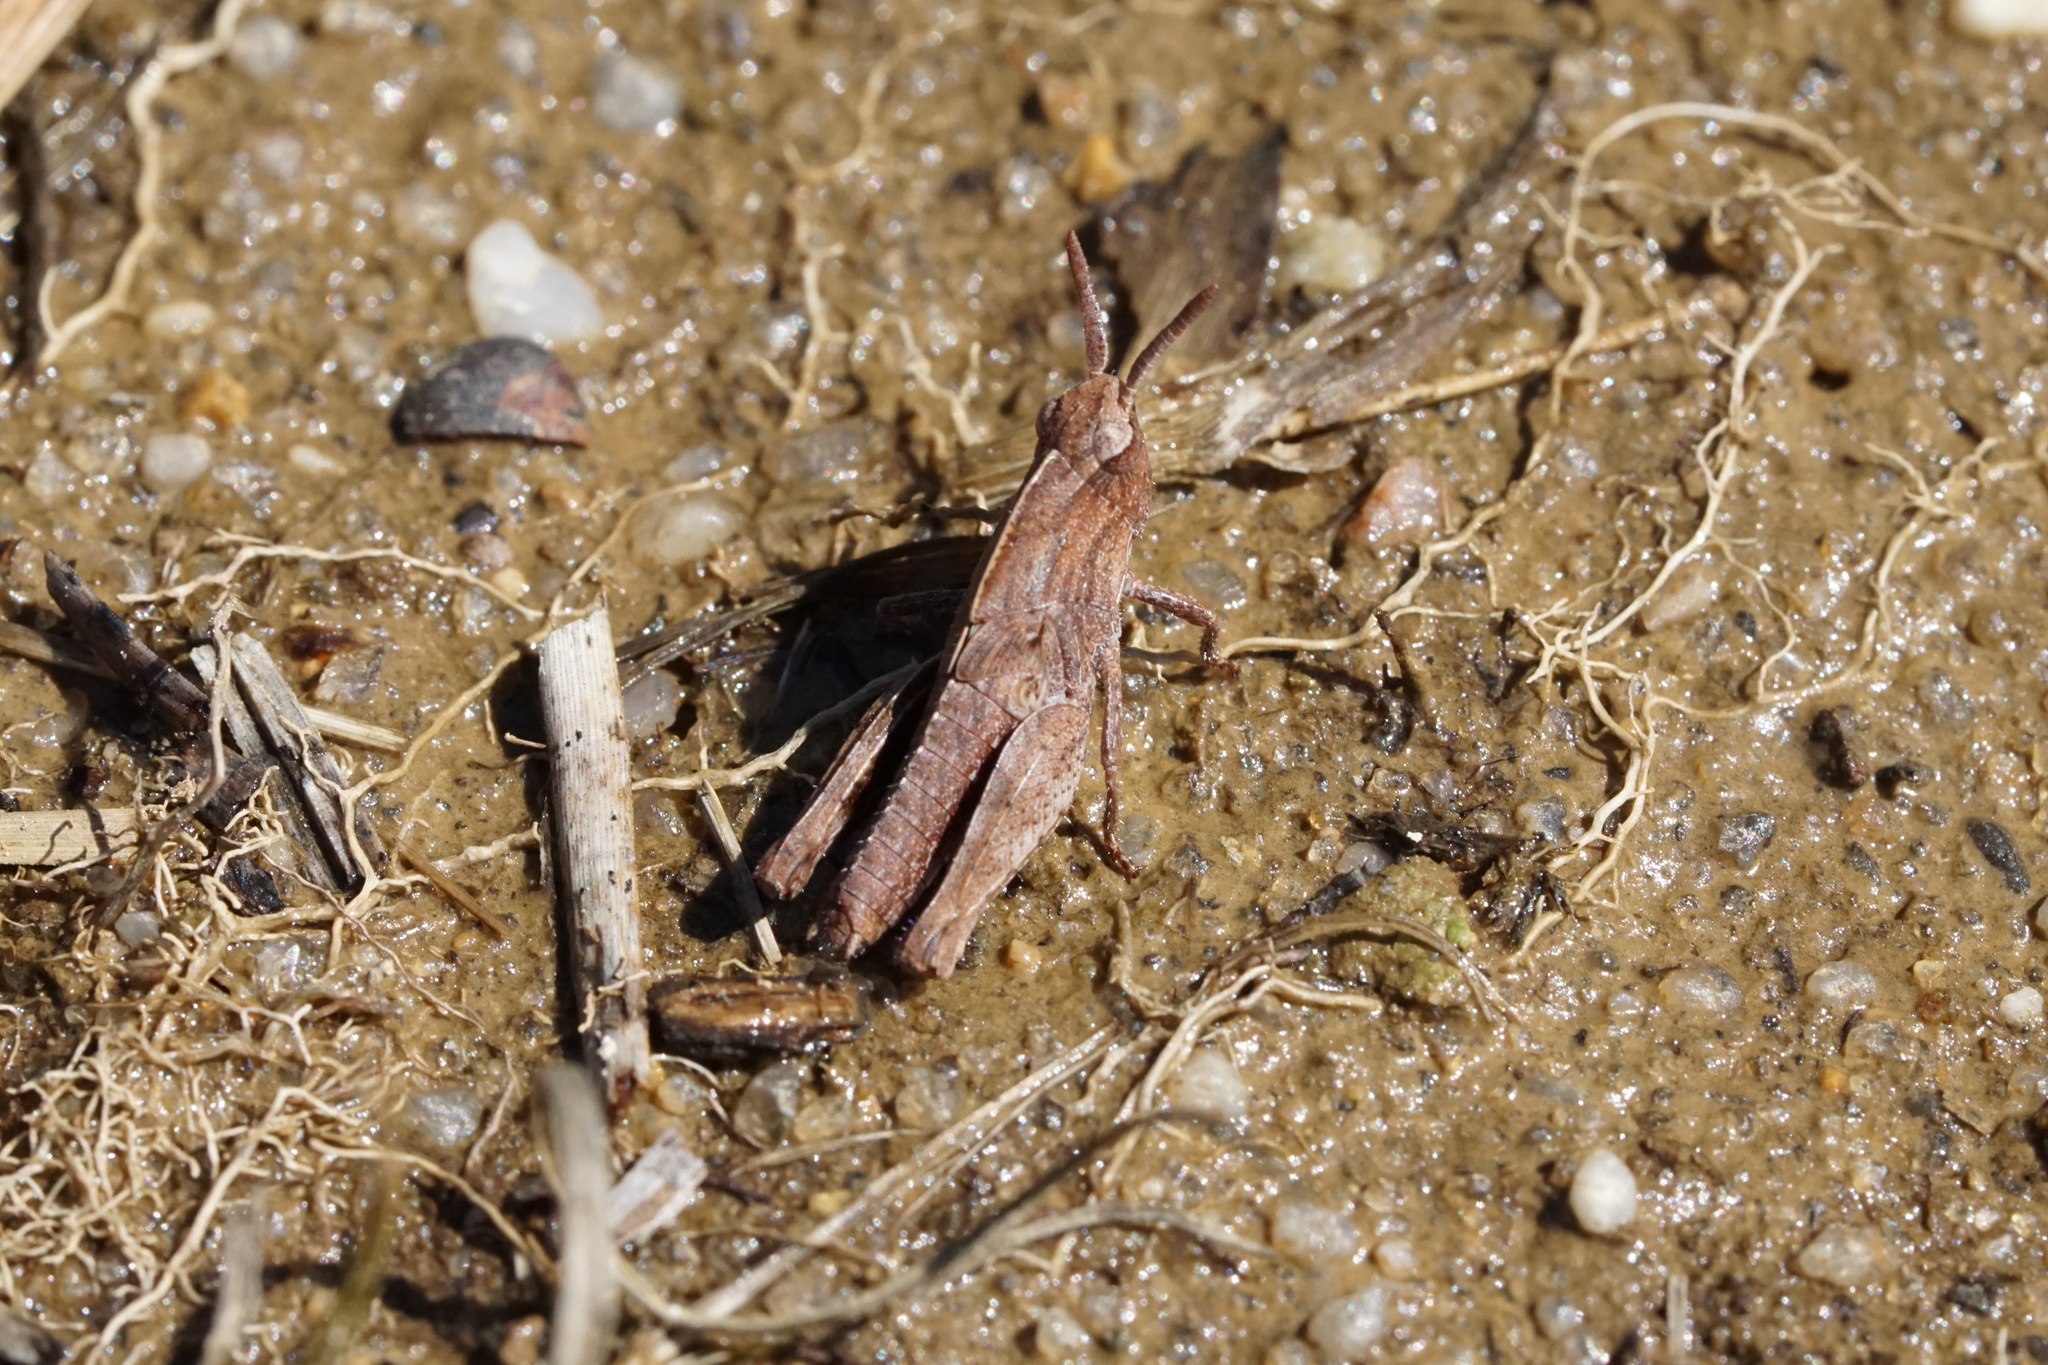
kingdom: Animalia
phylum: Arthropoda
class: Insecta
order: Orthoptera
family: Acrididae
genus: Chortophaga
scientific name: Chortophaga viridifasciata
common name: Green-striped grasshopper
